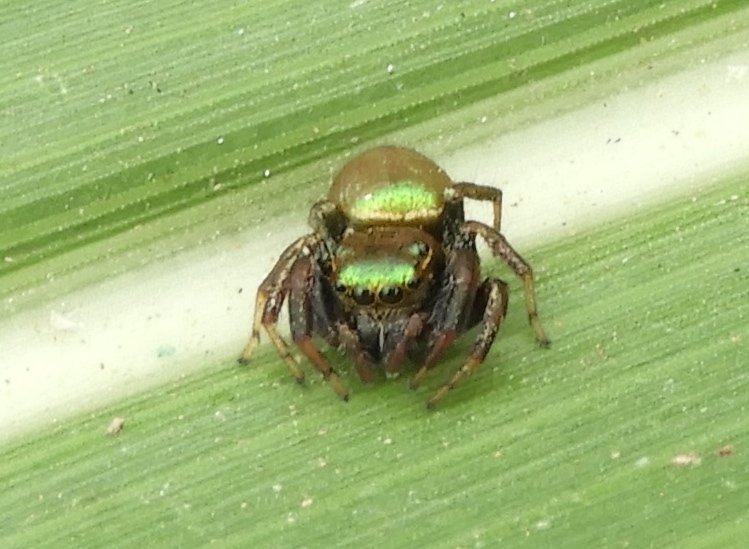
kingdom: Animalia
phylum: Arthropoda
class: Arachnida
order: Araneae
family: Salticidae
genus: Messua
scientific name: Messua limbata
